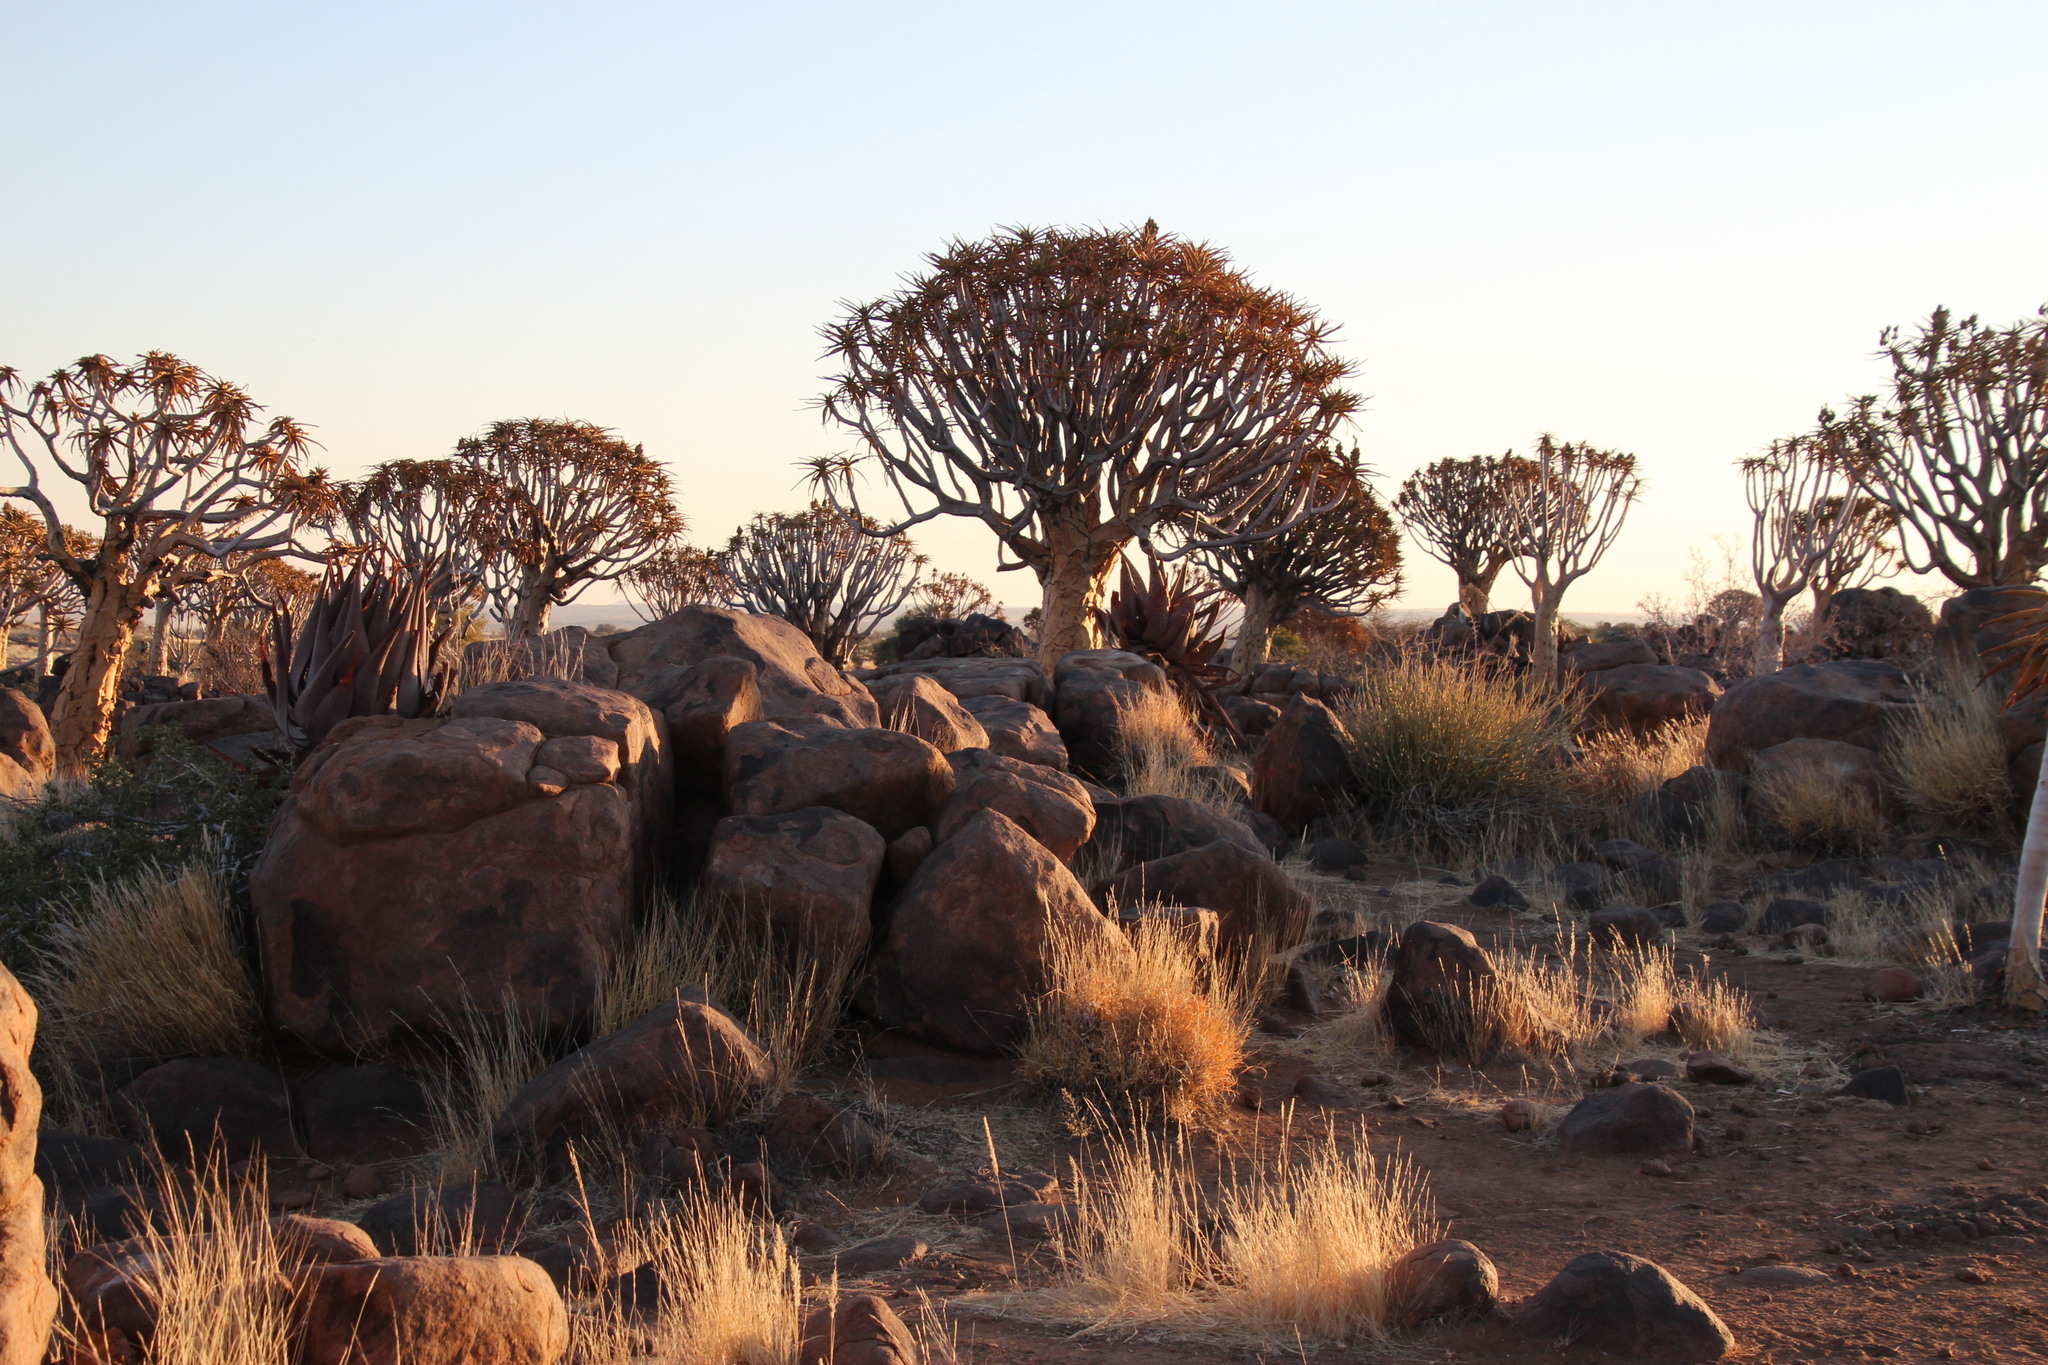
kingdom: Plantae
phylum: Tracheophyta
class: Liliopsida
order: Asparagales
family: Asphodelaceae
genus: Aloidendron
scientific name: Aloidendron dichotomum
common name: Quiver tree
